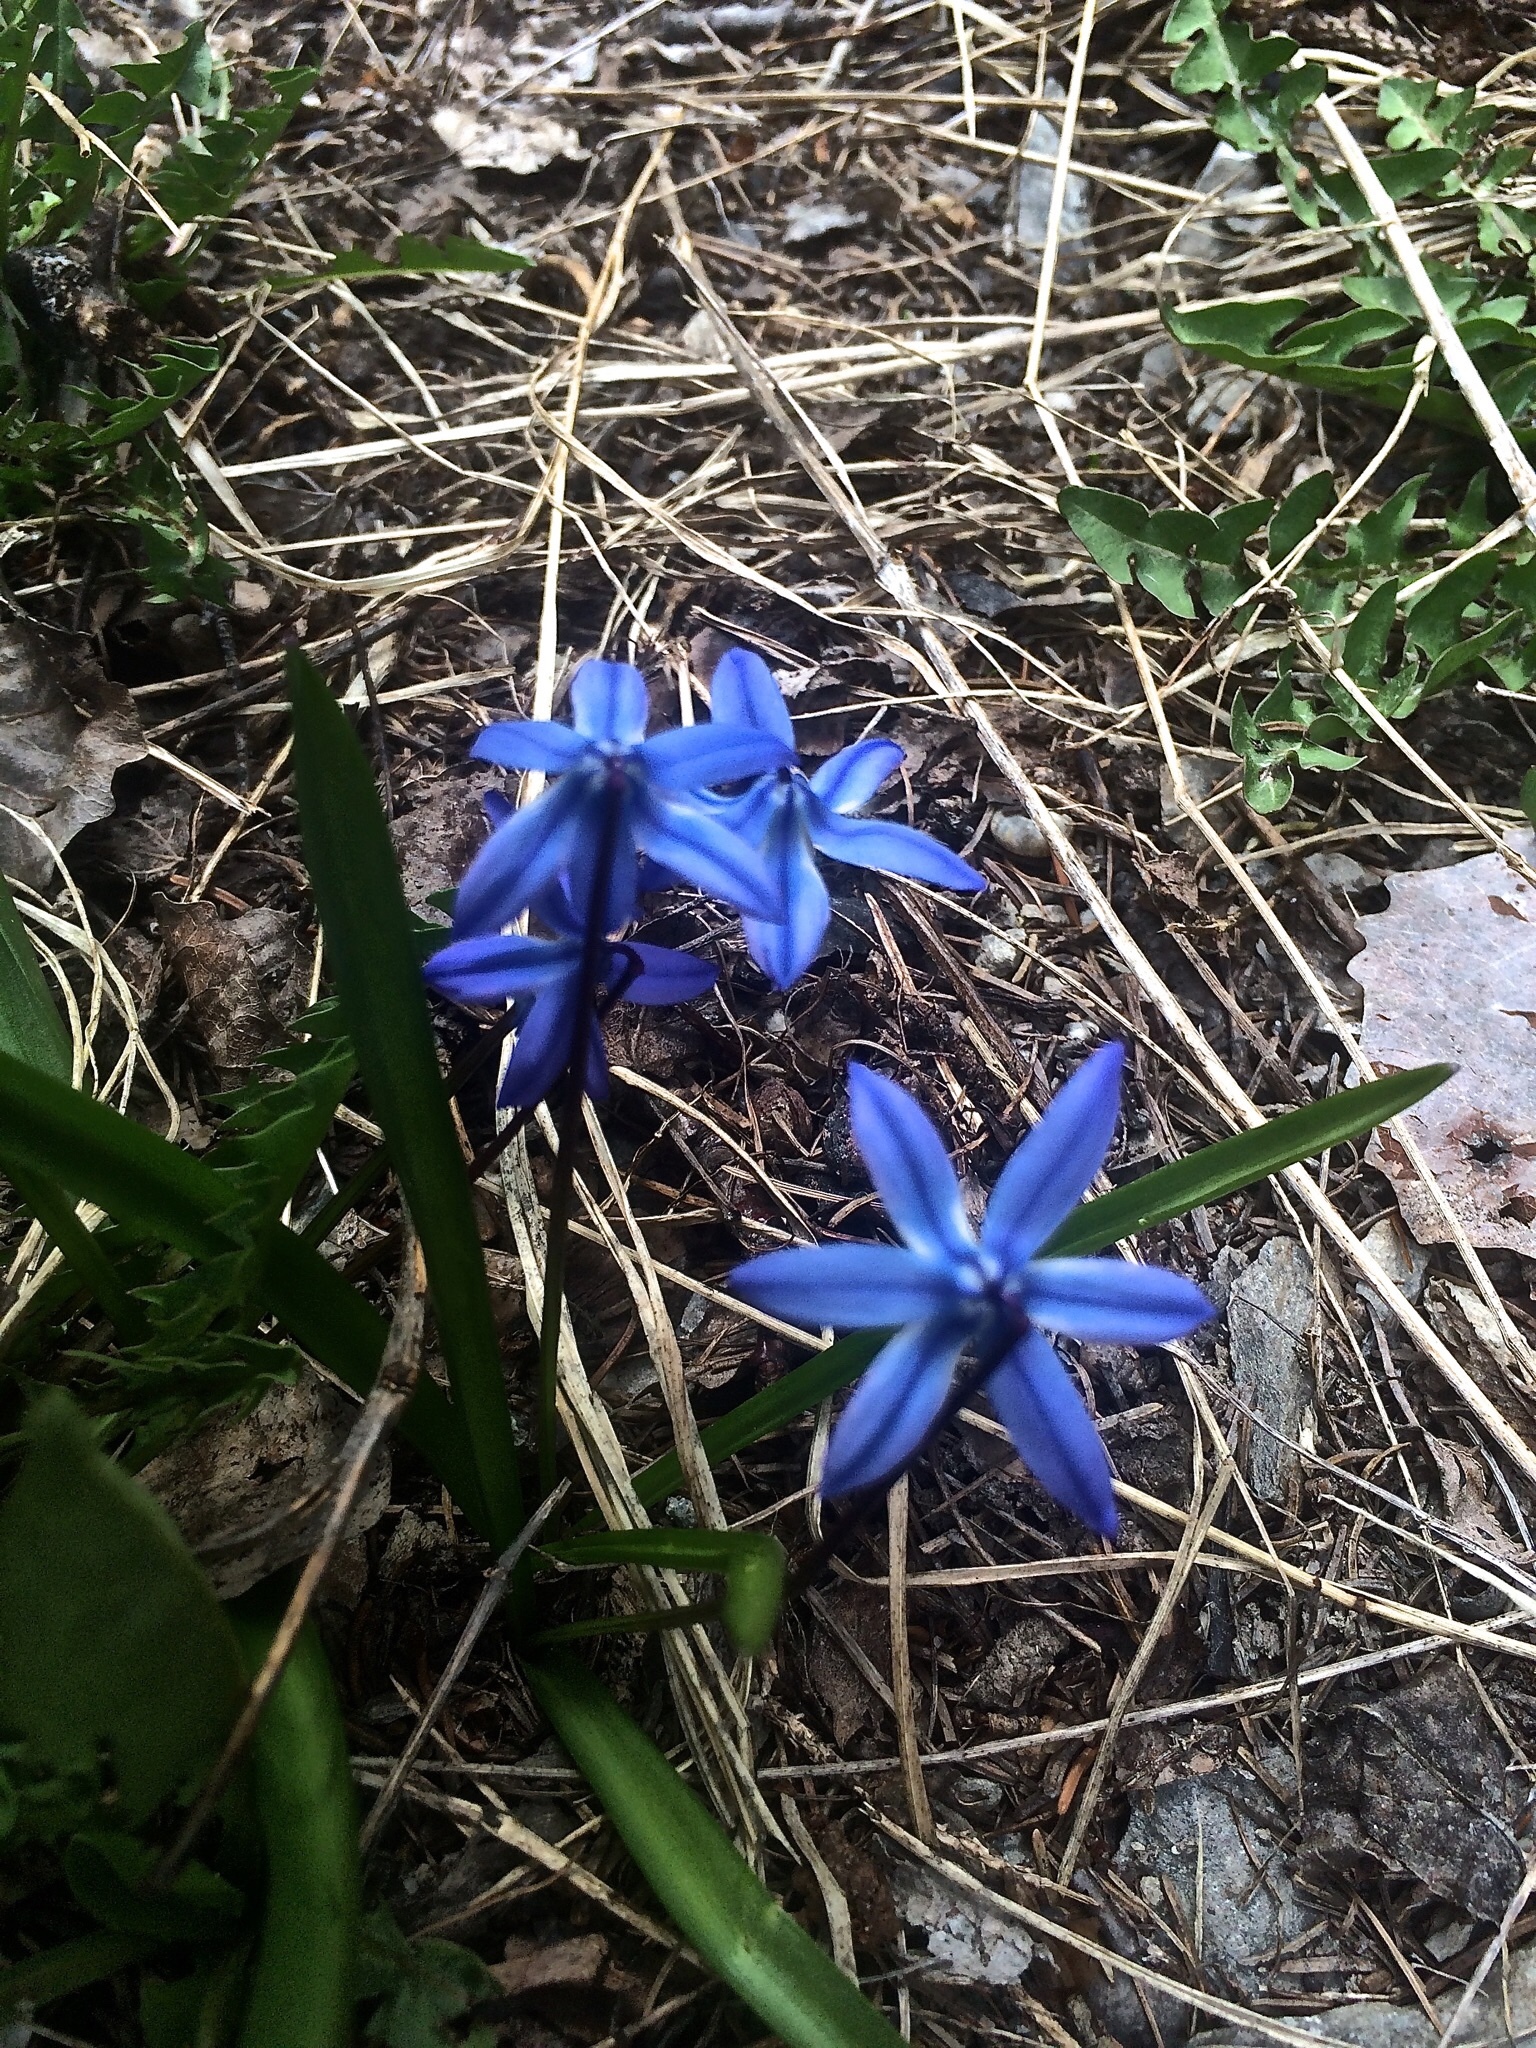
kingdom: Plantae
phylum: Tracheophyta
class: Liliopsida
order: Asparagales
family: Asparagaceae
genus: Scilla
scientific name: Scilla siberica
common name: Siberian squill
